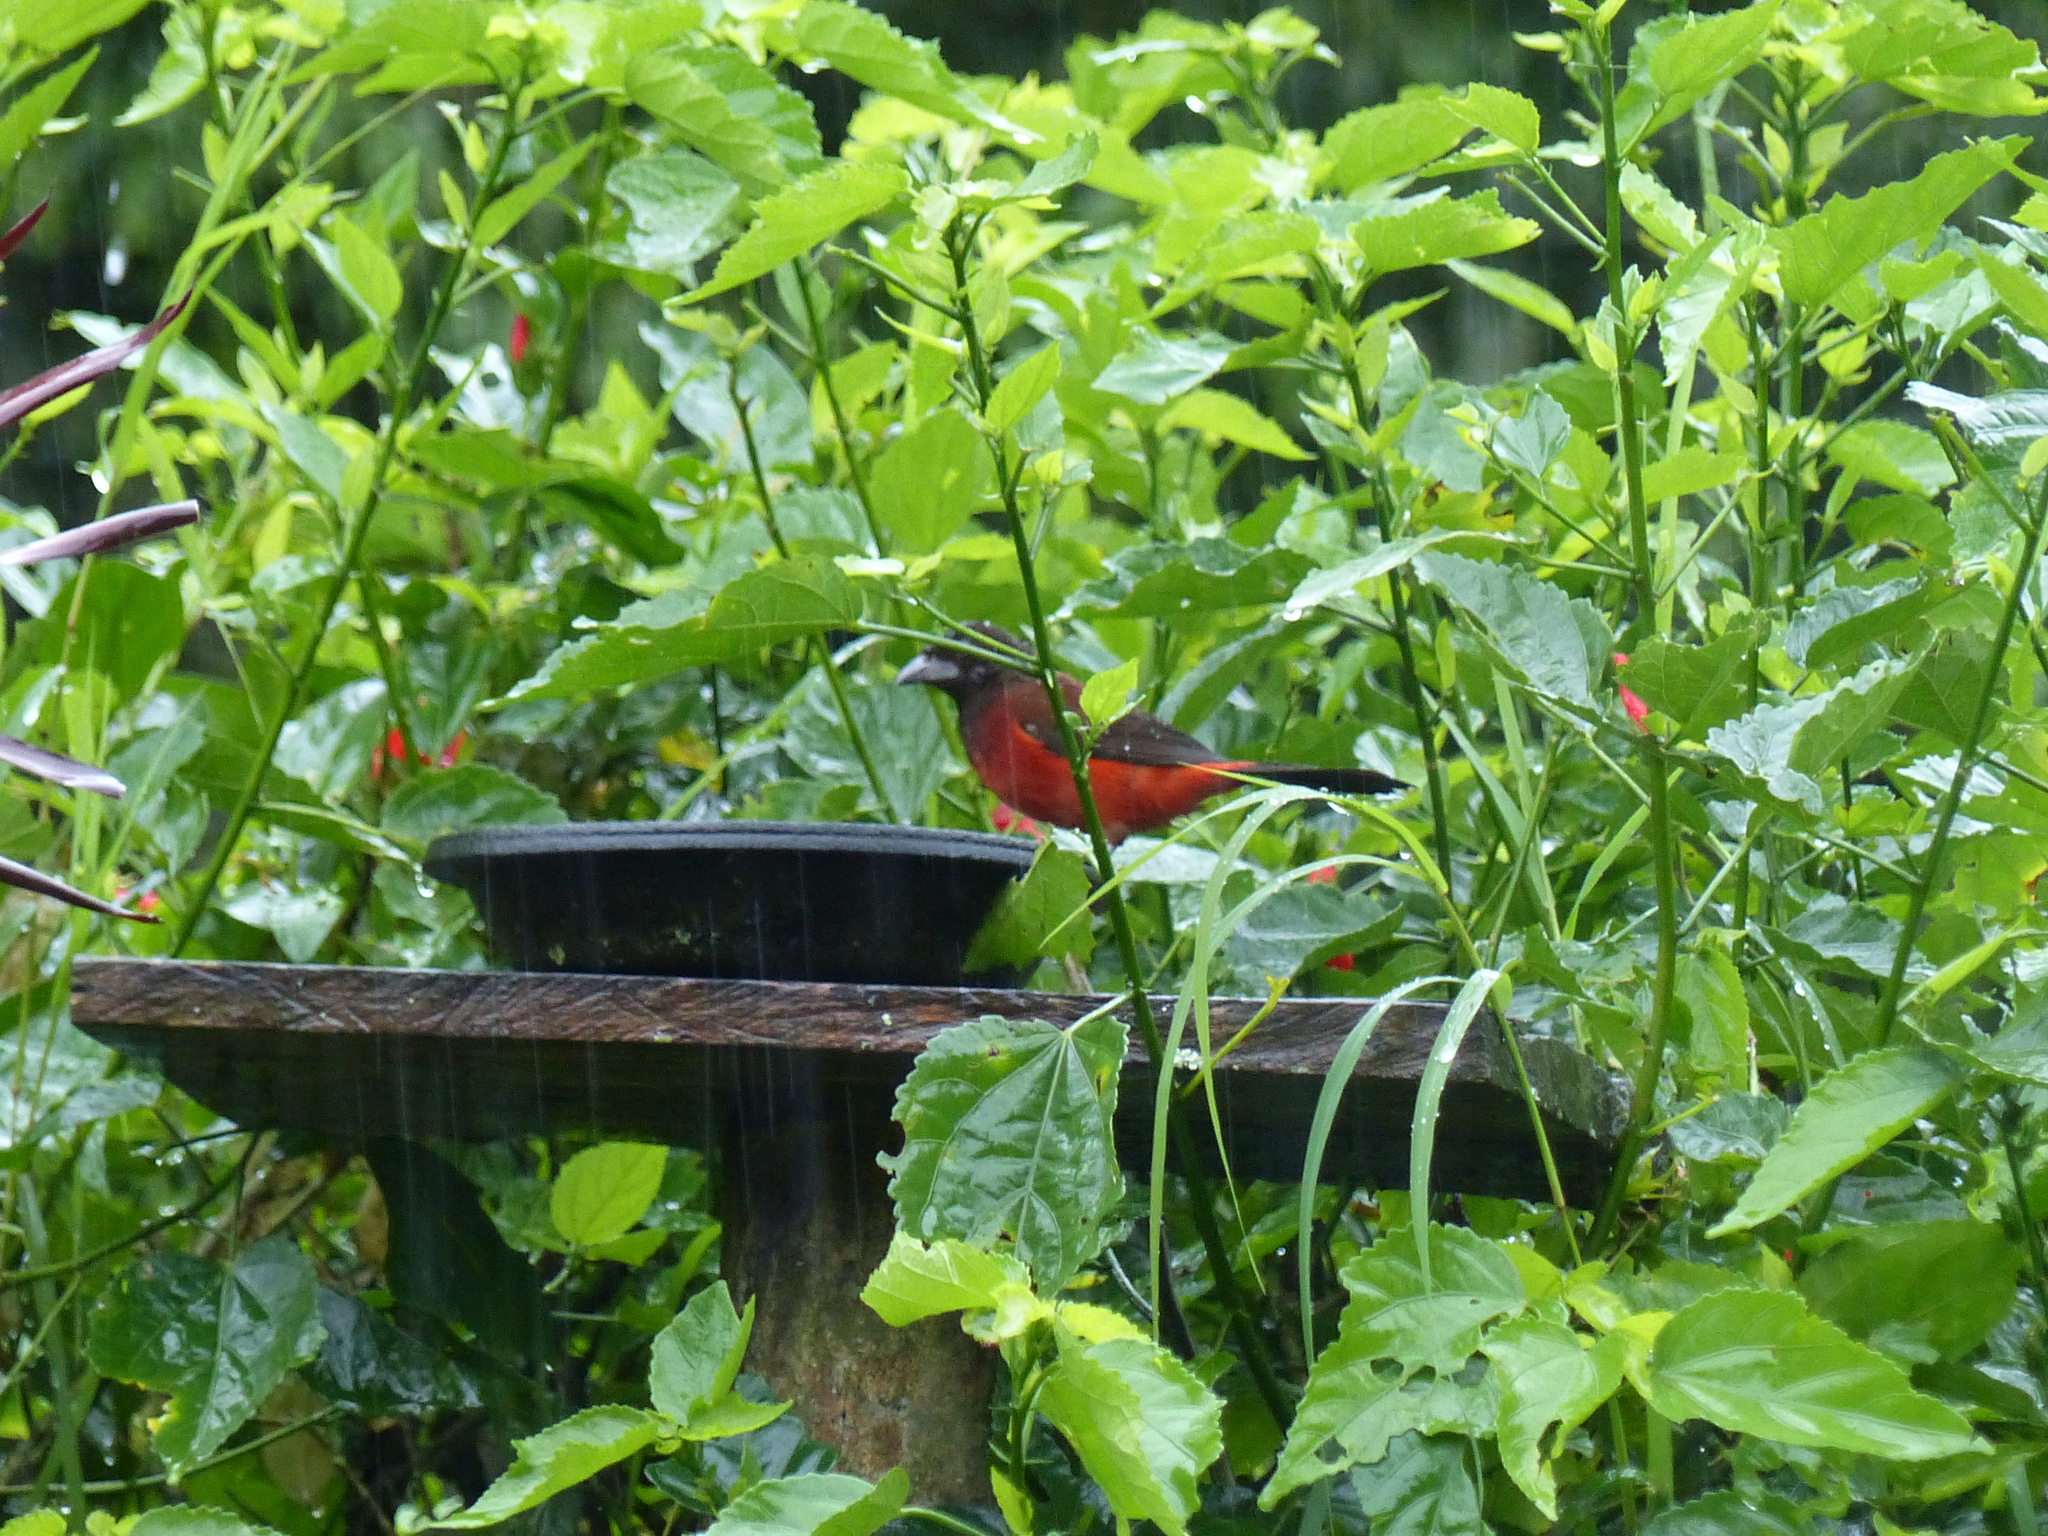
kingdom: Animalia
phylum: Chordata
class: Aves
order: Passeriformes
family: Thraupidae
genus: Ramphocelus
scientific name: Ramphocelus dimidiatus
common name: Crimson-backed tanager
